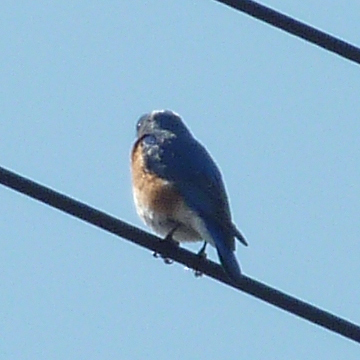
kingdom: Animalia
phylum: Chordata
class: Aves
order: Passeriformes
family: Turdidae
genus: Sialia
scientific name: Sialia sialis
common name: Eastern bluebird
